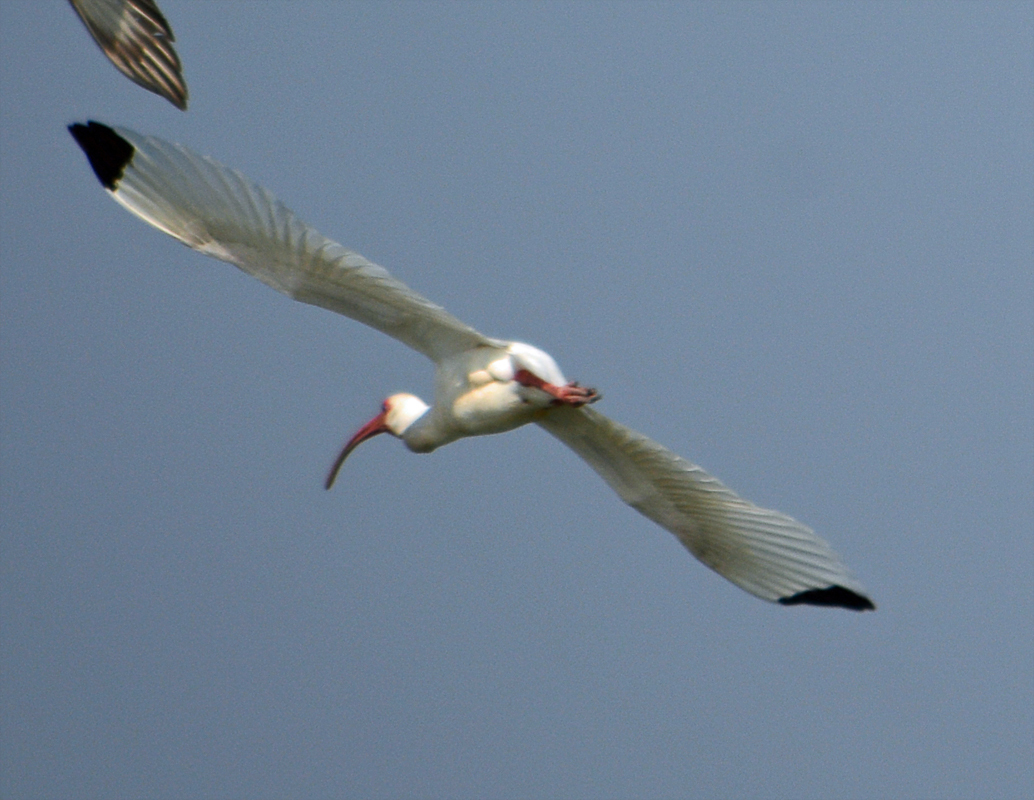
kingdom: Animalia
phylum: Chordata
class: Aves
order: Pelecaniformes
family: Threskiornithidae
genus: Eudocimus
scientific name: Eudocimus albus
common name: White ibis
